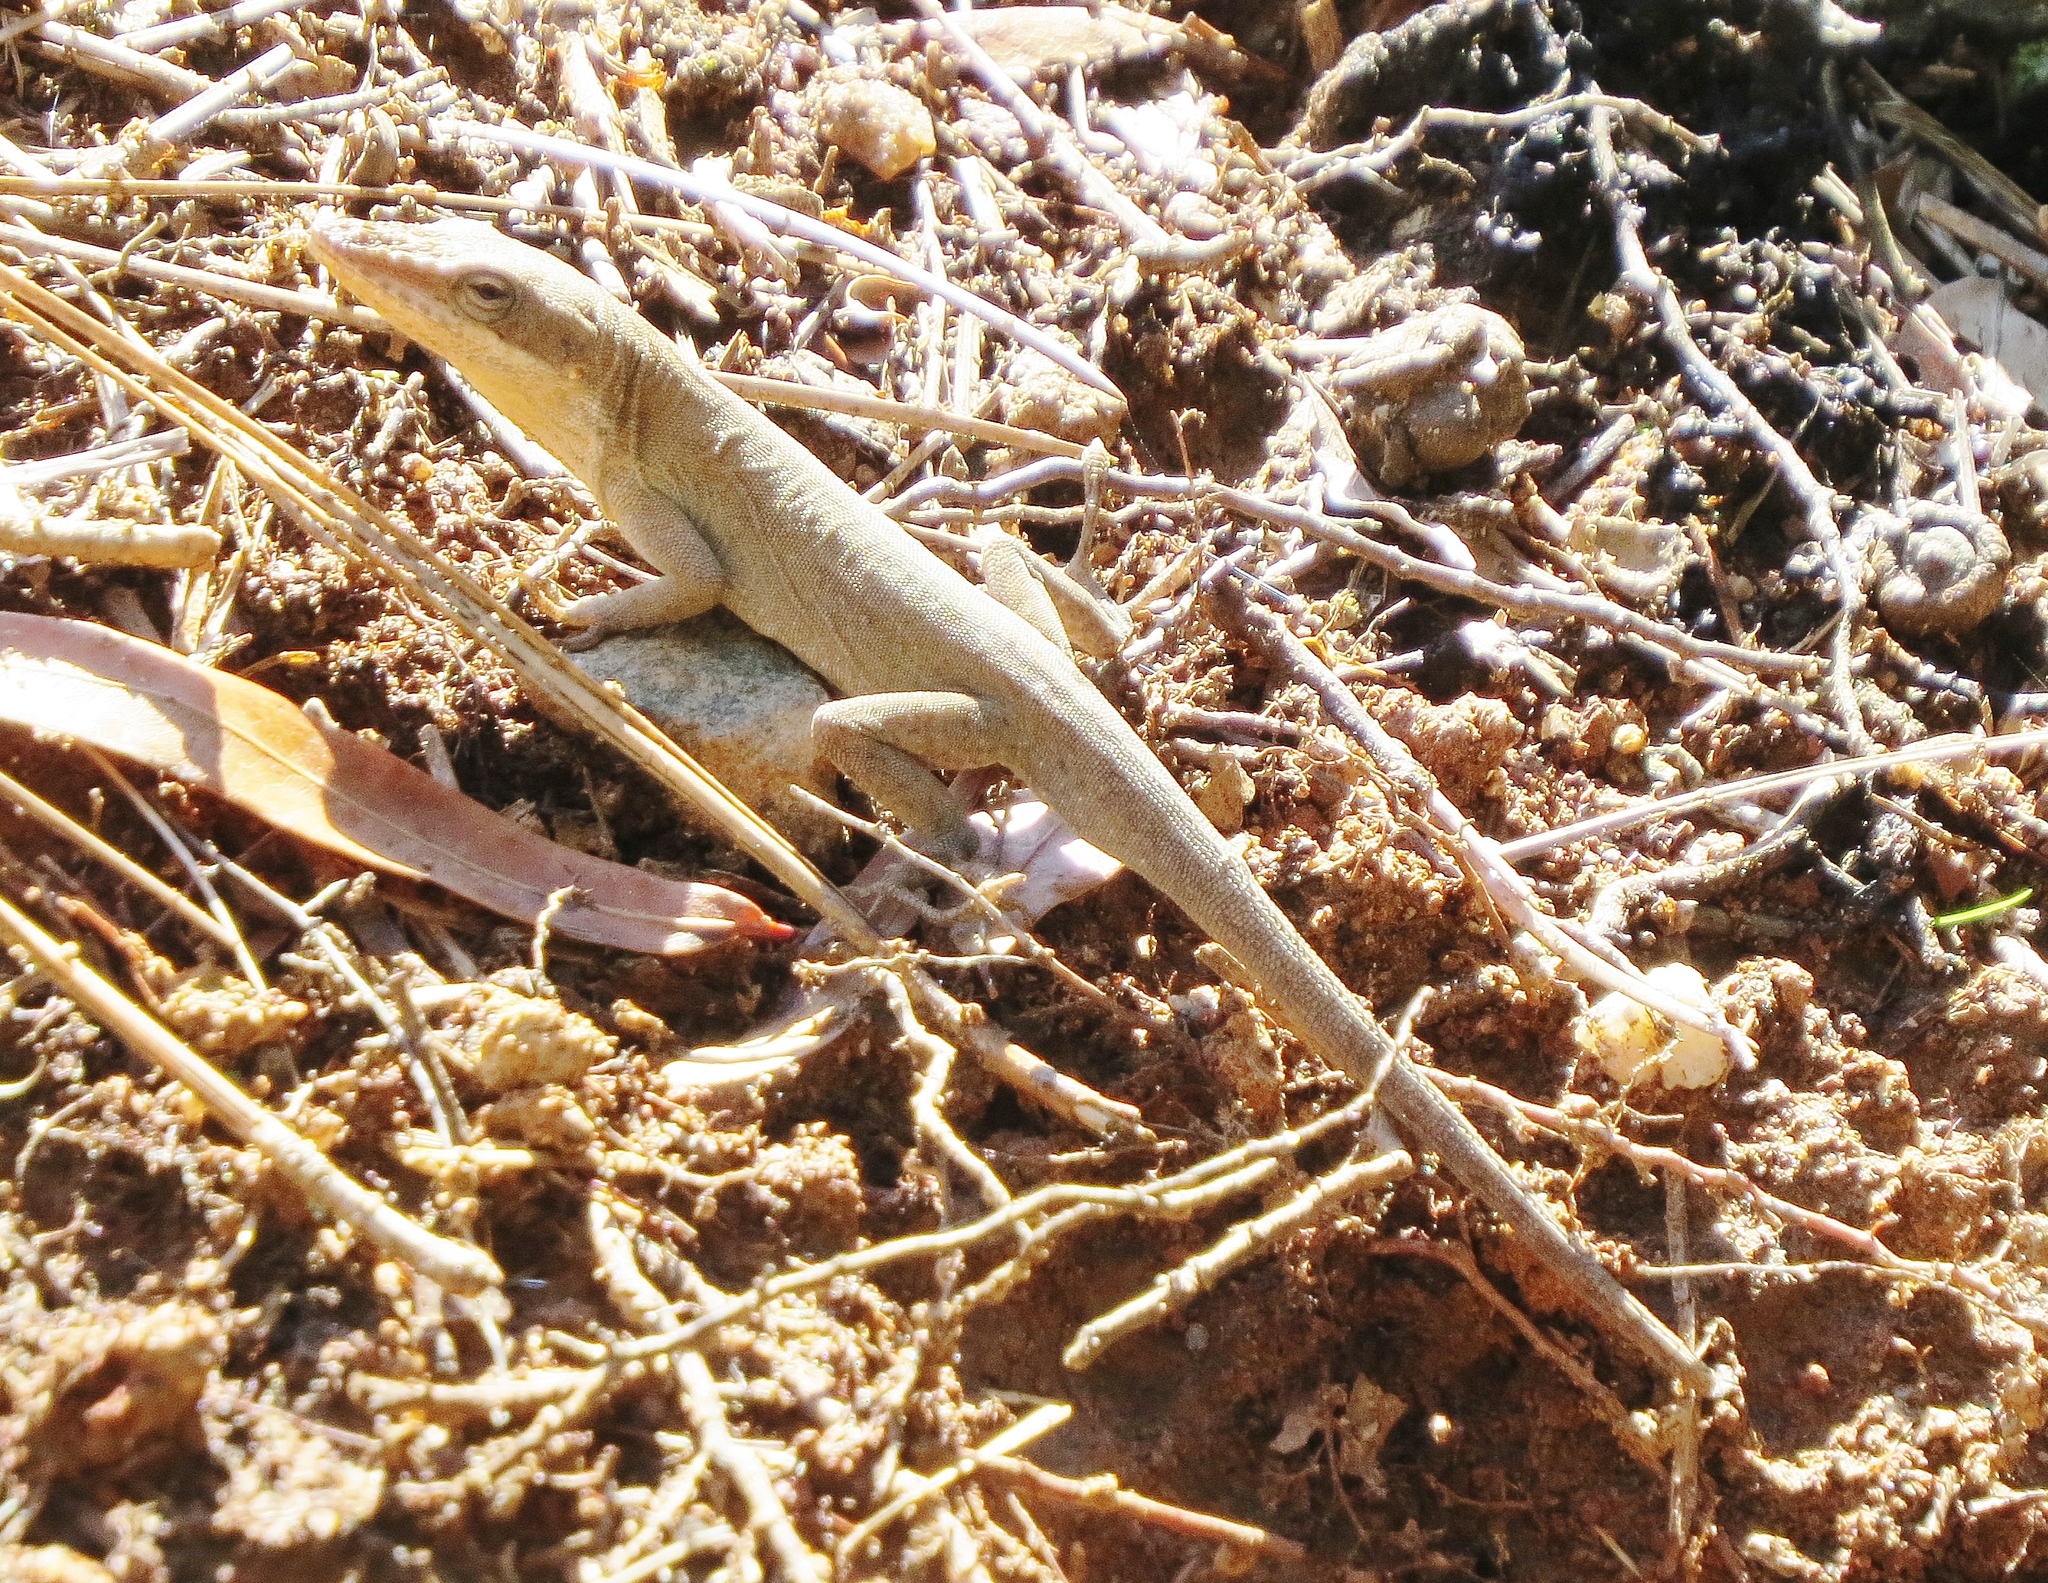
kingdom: Animalia
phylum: Chordata
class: Squamata
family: Dactyloidae
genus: Anolis
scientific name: Anolis carolinensis
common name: Green anole
